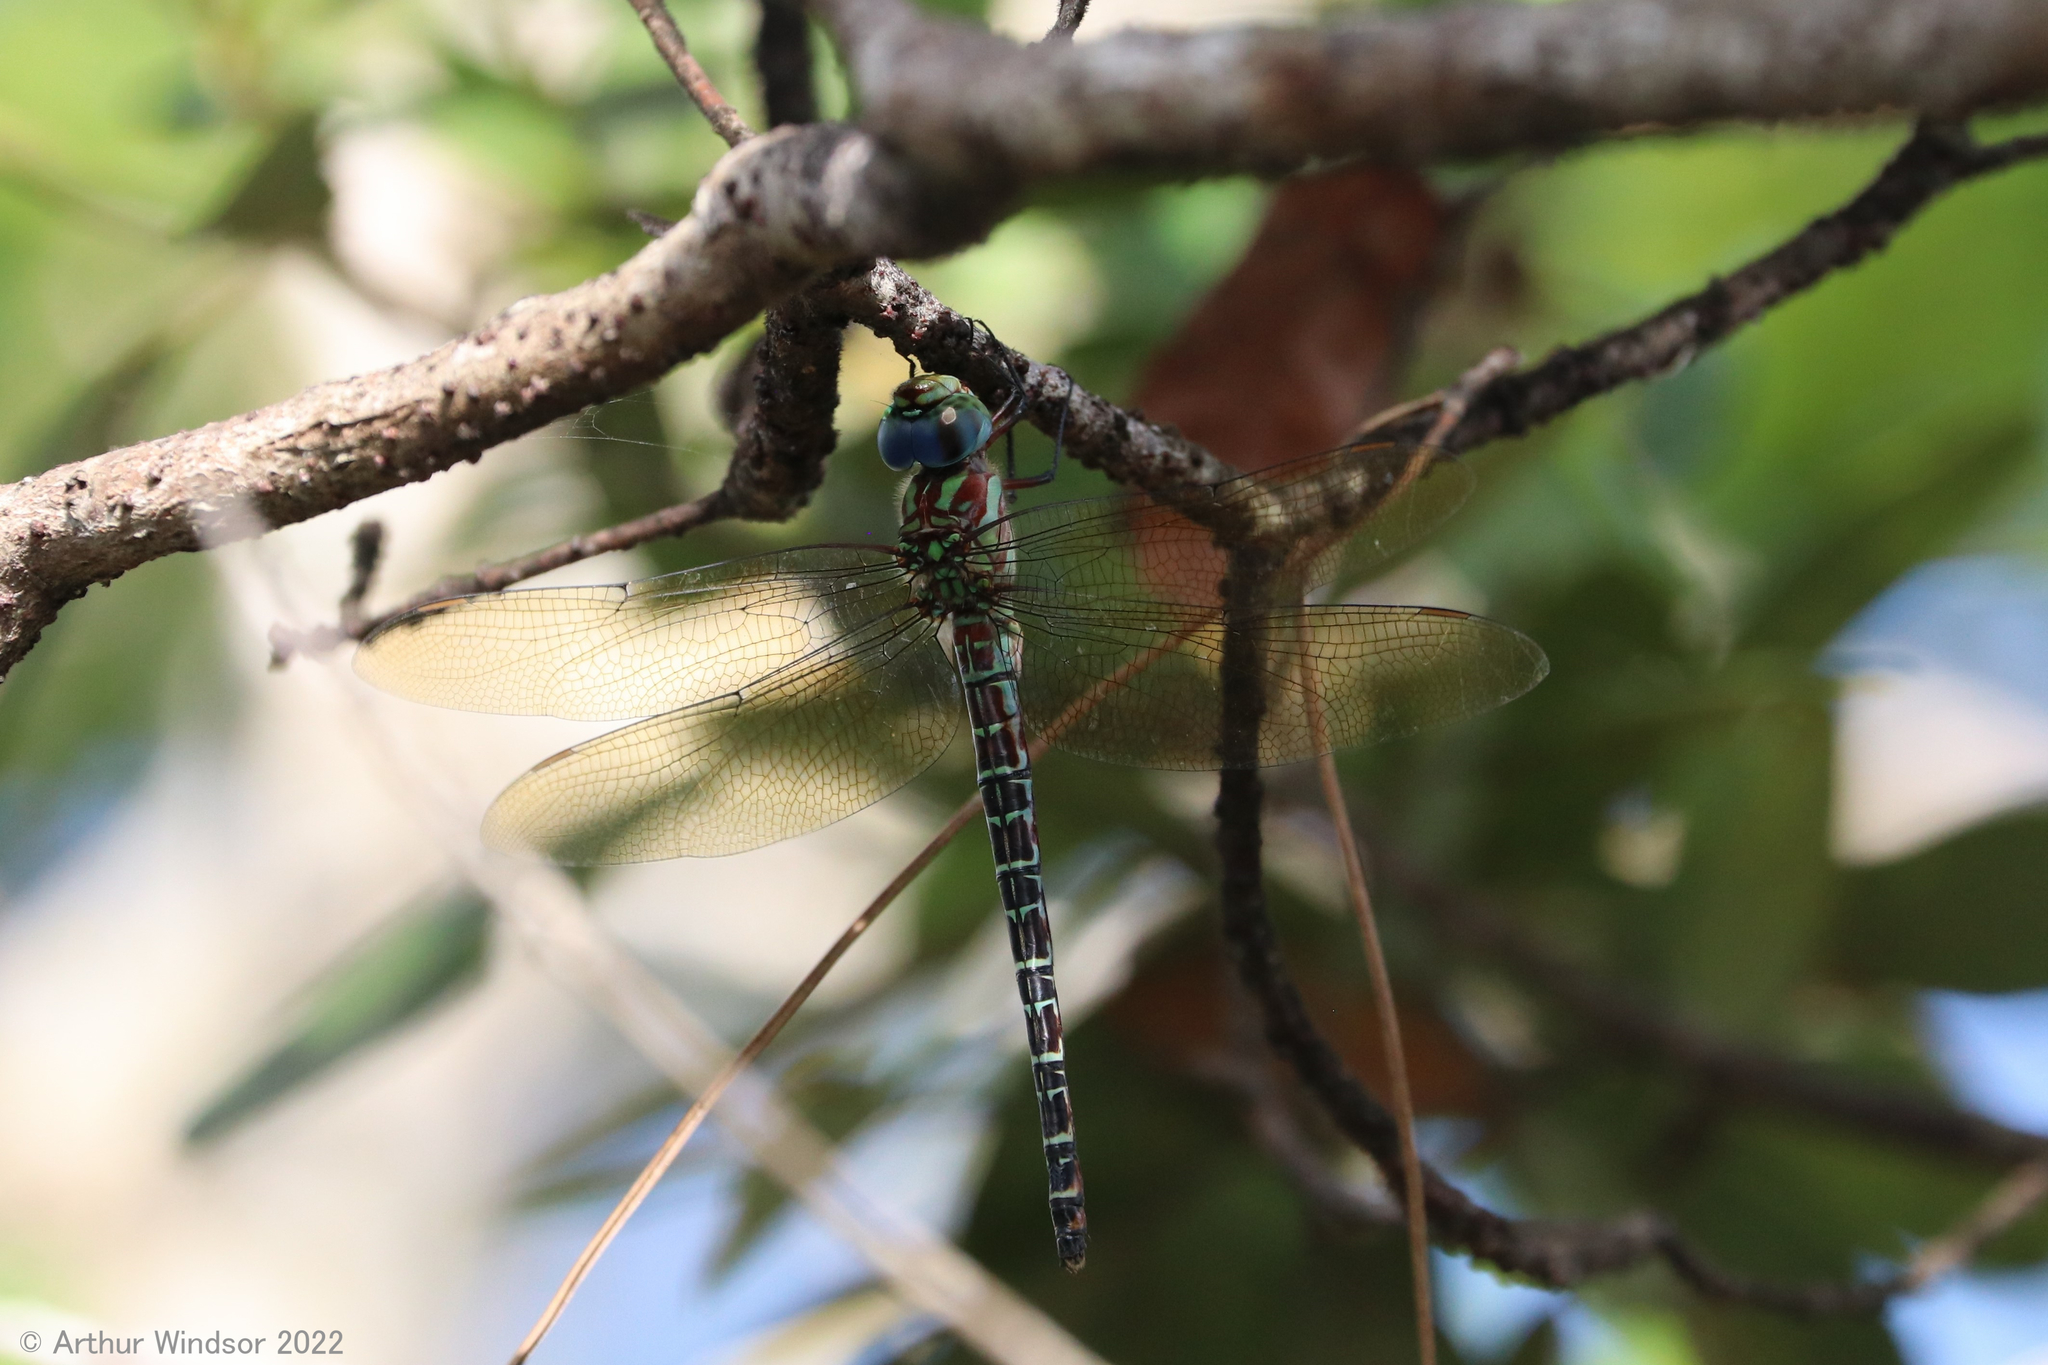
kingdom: Animalia
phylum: Arthropoda
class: Insecta
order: Odonata
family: Aeshnidae
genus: Coryphaeschna
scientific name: Coryphaeschna ingens
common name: Regal darner
